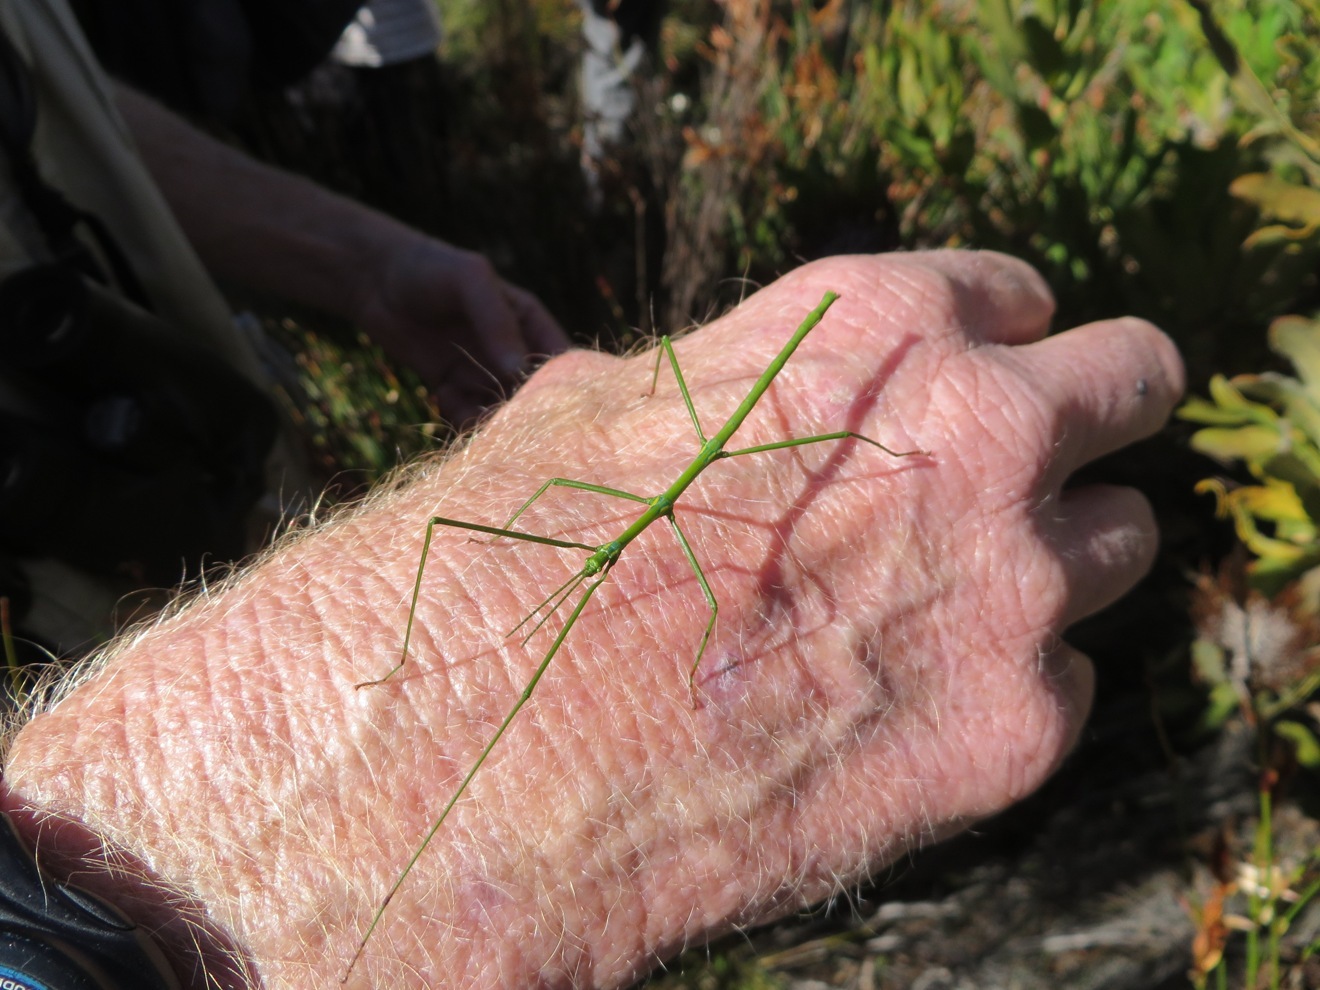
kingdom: Animalia
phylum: Arthropoda
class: Insecta
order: Phasmida
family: Bacillidae
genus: Phalces
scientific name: Phalces brevis
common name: Cape stick insect
